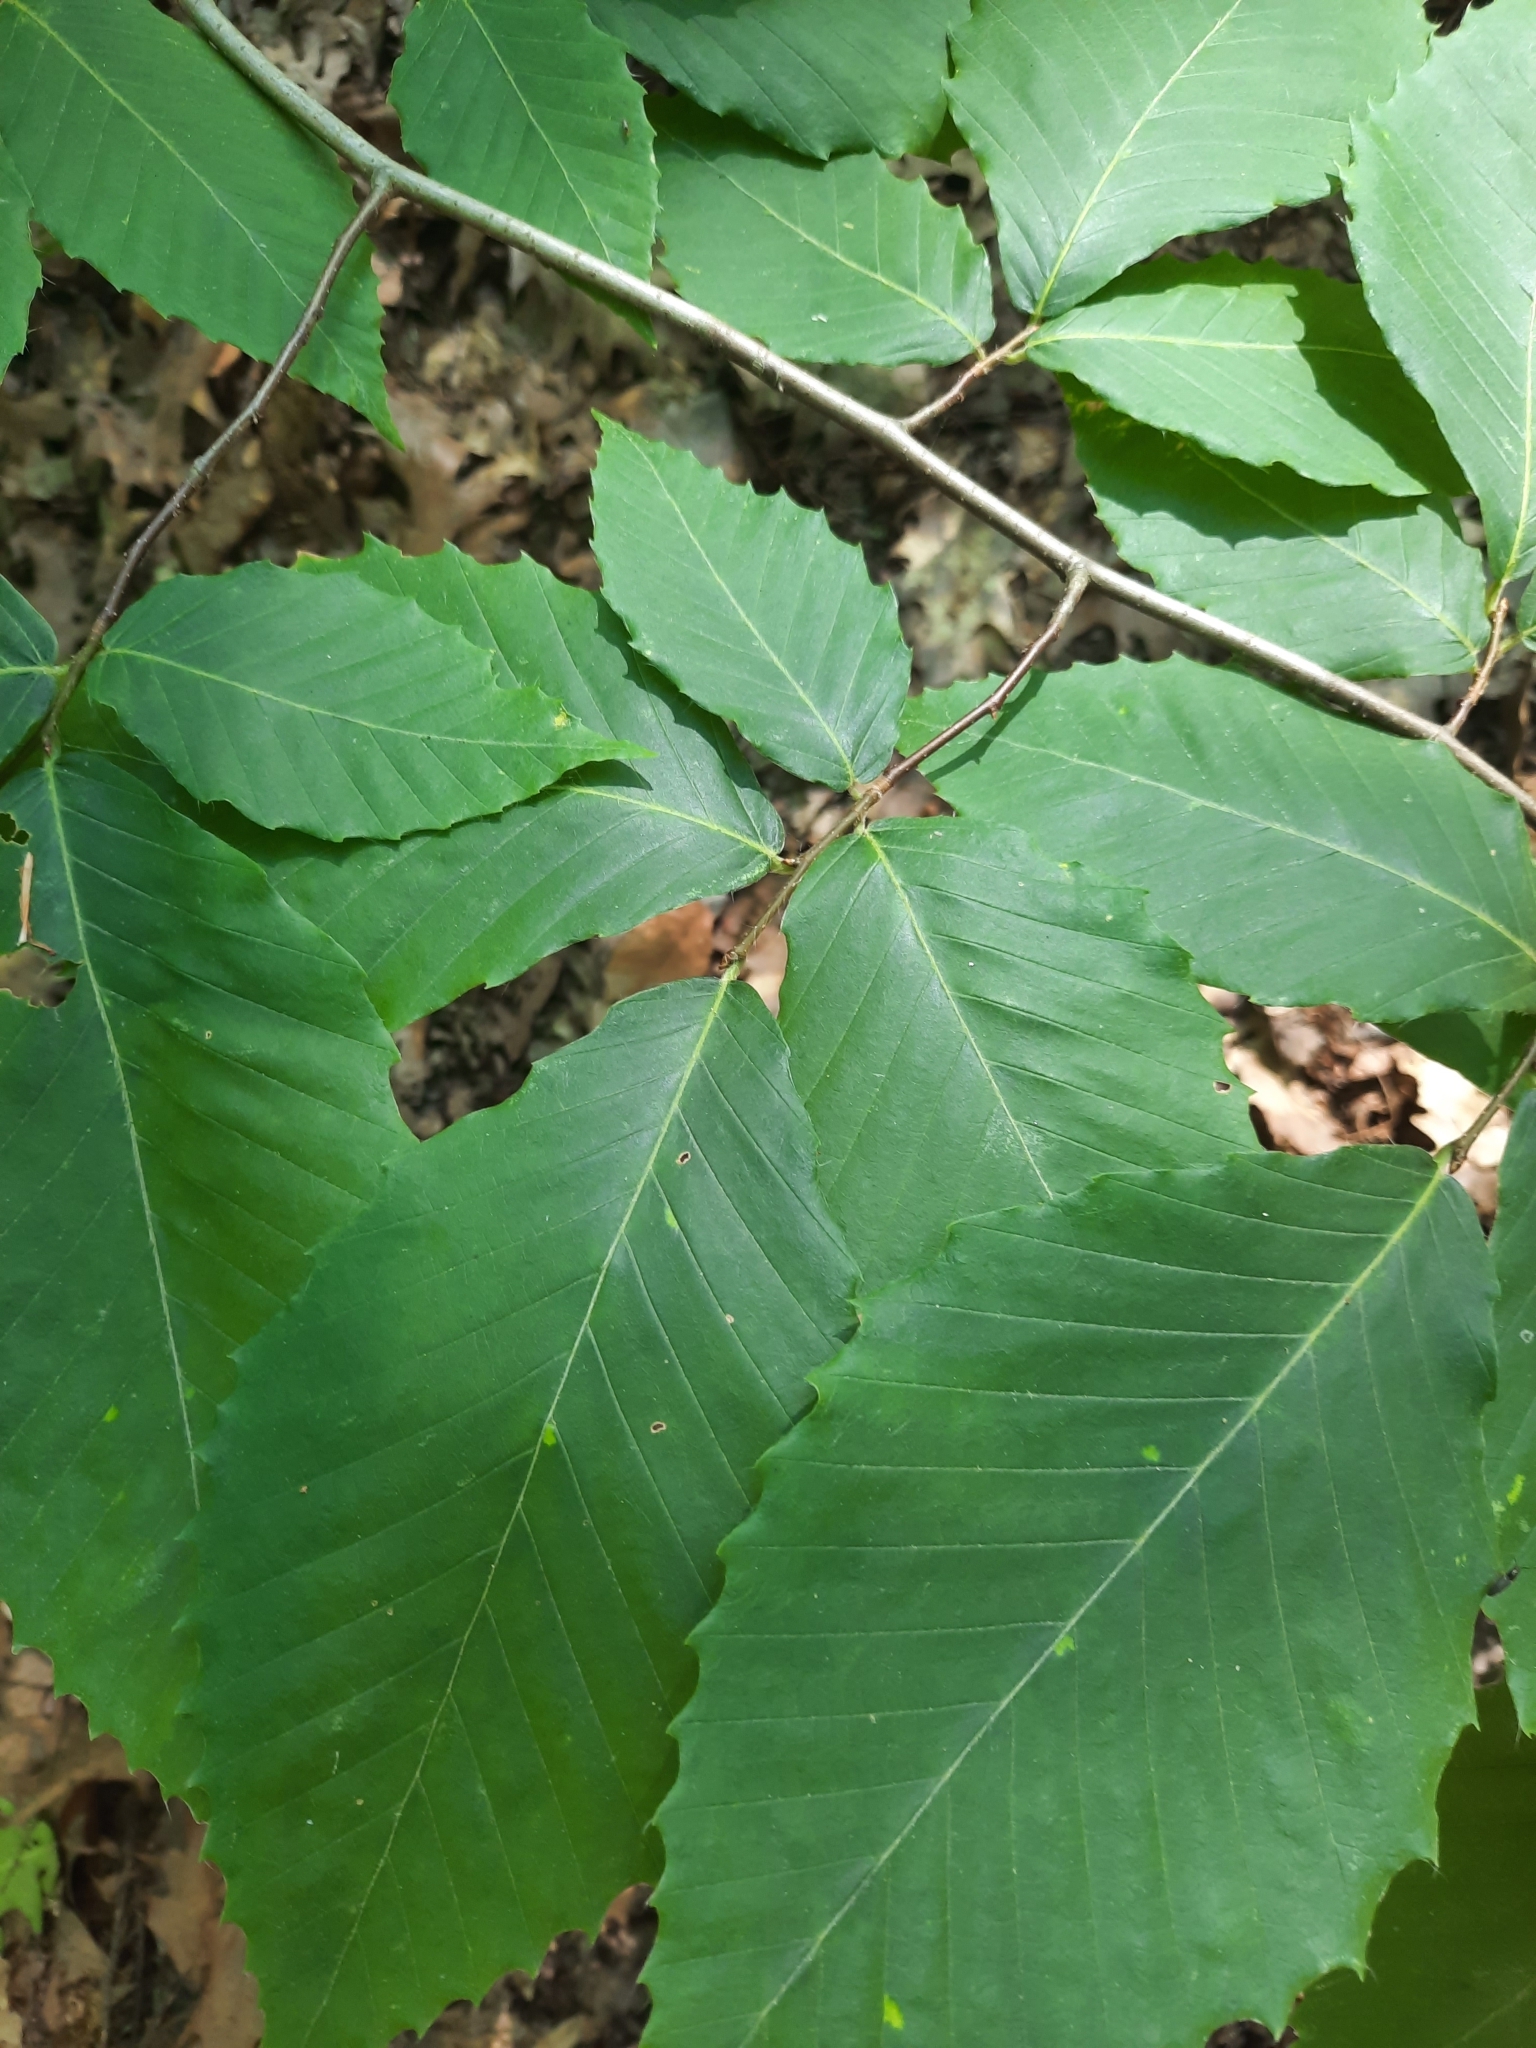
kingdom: Plantae
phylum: Tracheophyta
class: Magnoliopsida
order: Fagales
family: Fagaceae
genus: Fagus
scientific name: Fagus grandifolia
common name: American beech
